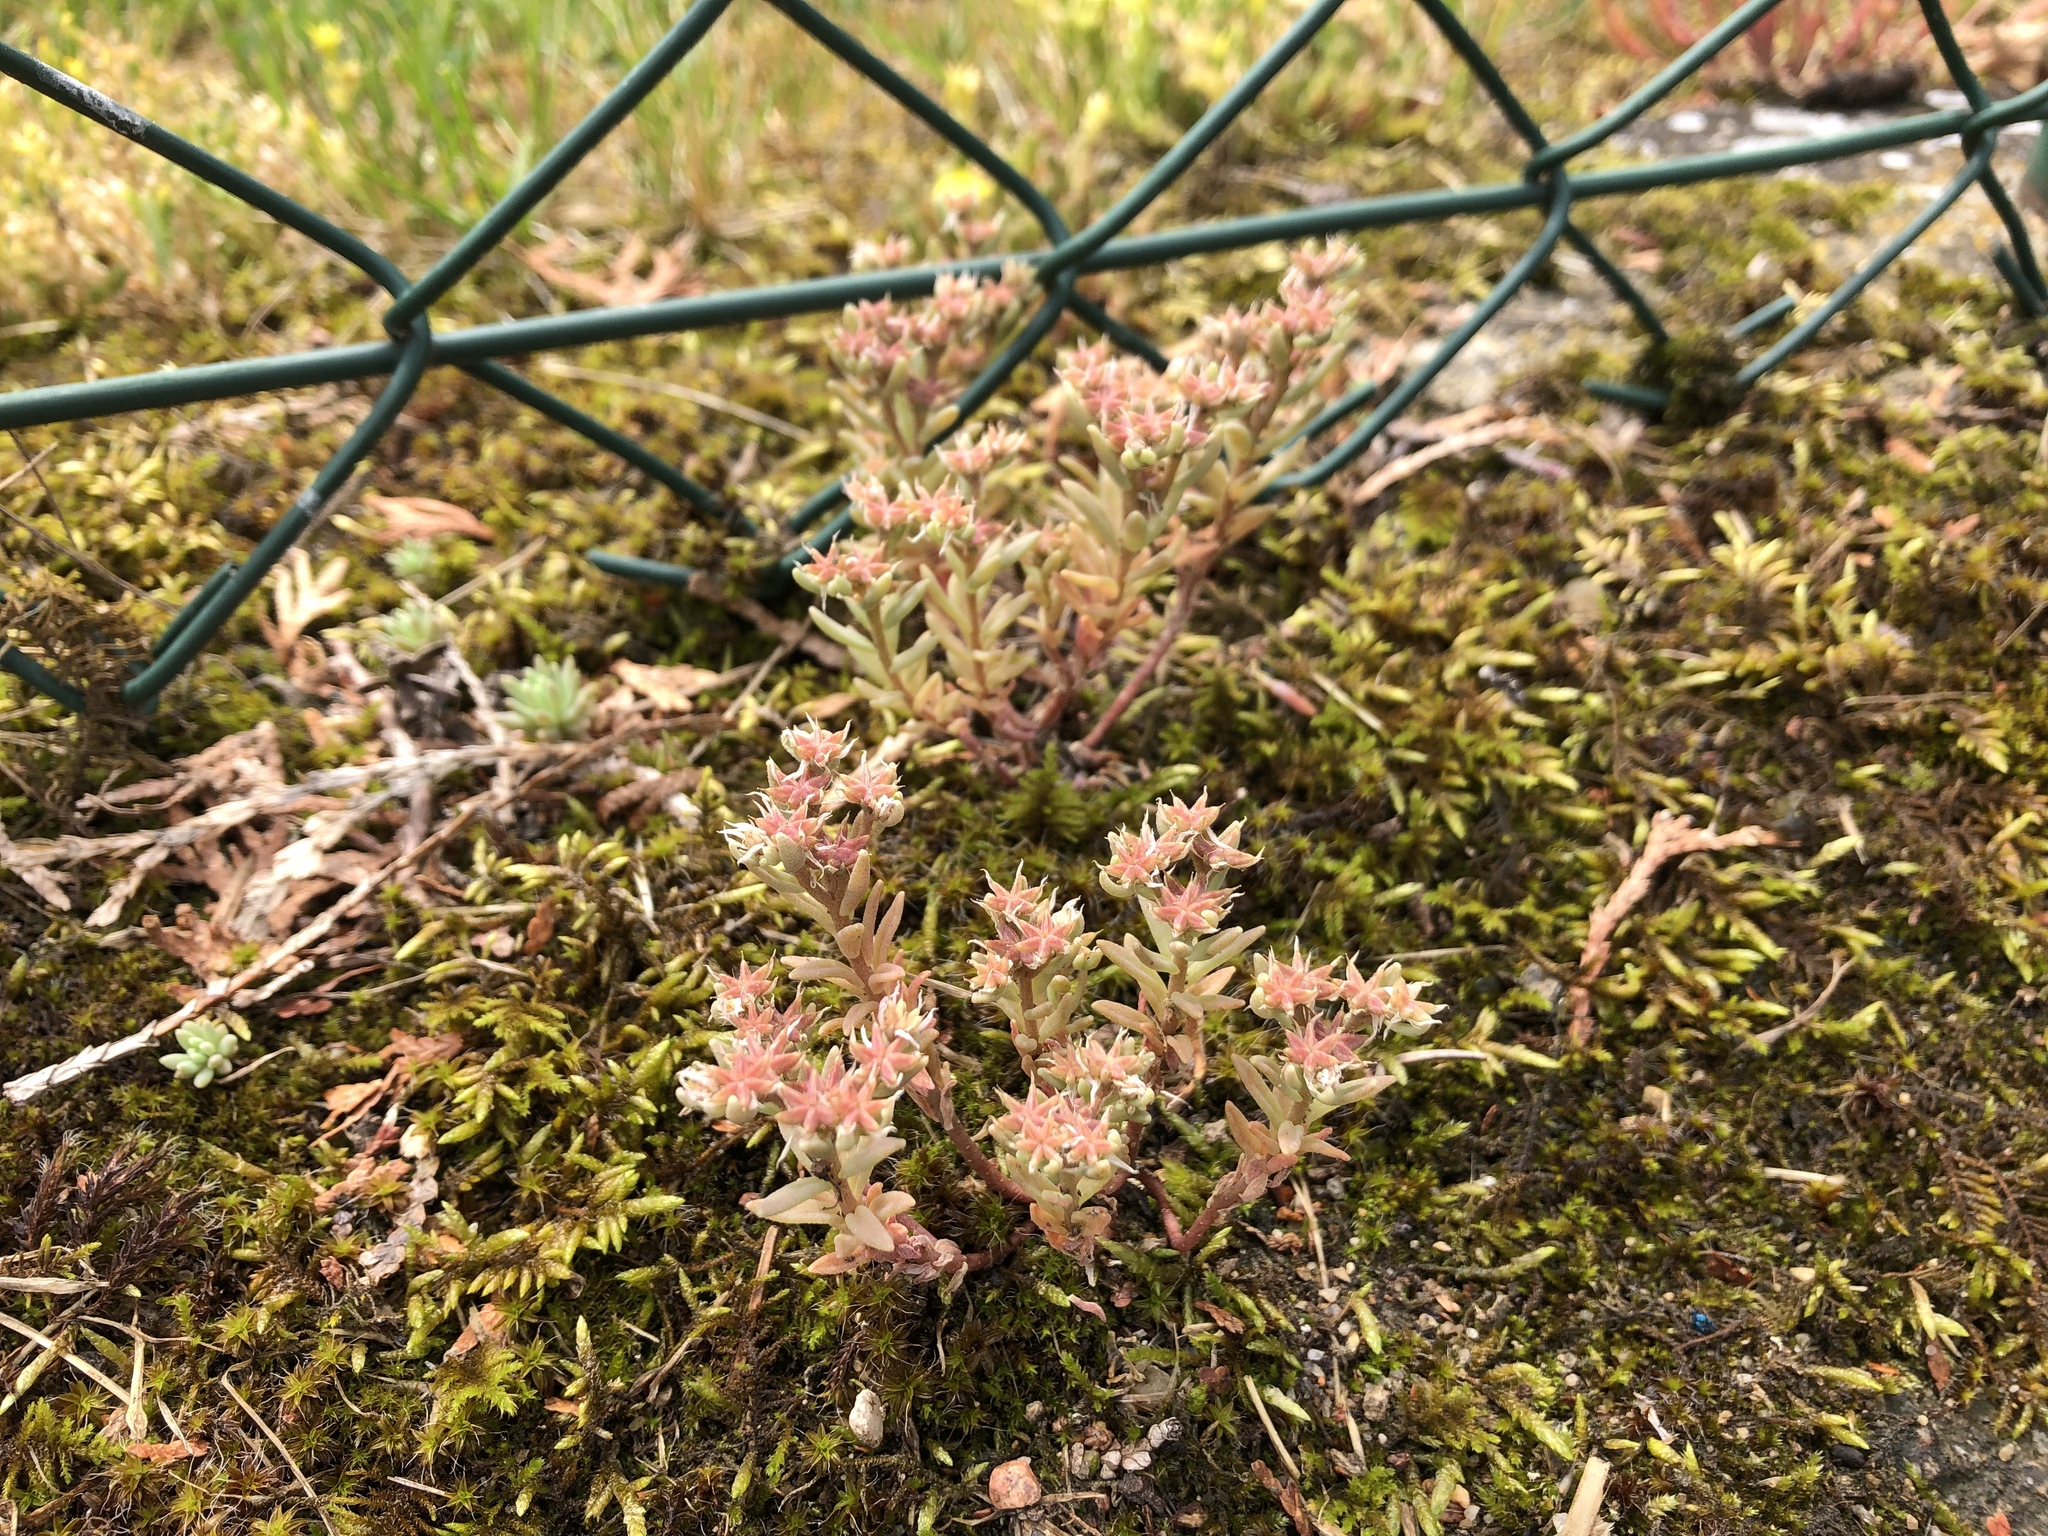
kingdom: Plantae
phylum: Tracheophyta
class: Magnoliopsida
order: Saxifragales
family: Crassulaceae
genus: Sedum
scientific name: Sedum hispanicum
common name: Spanish stonecrop
